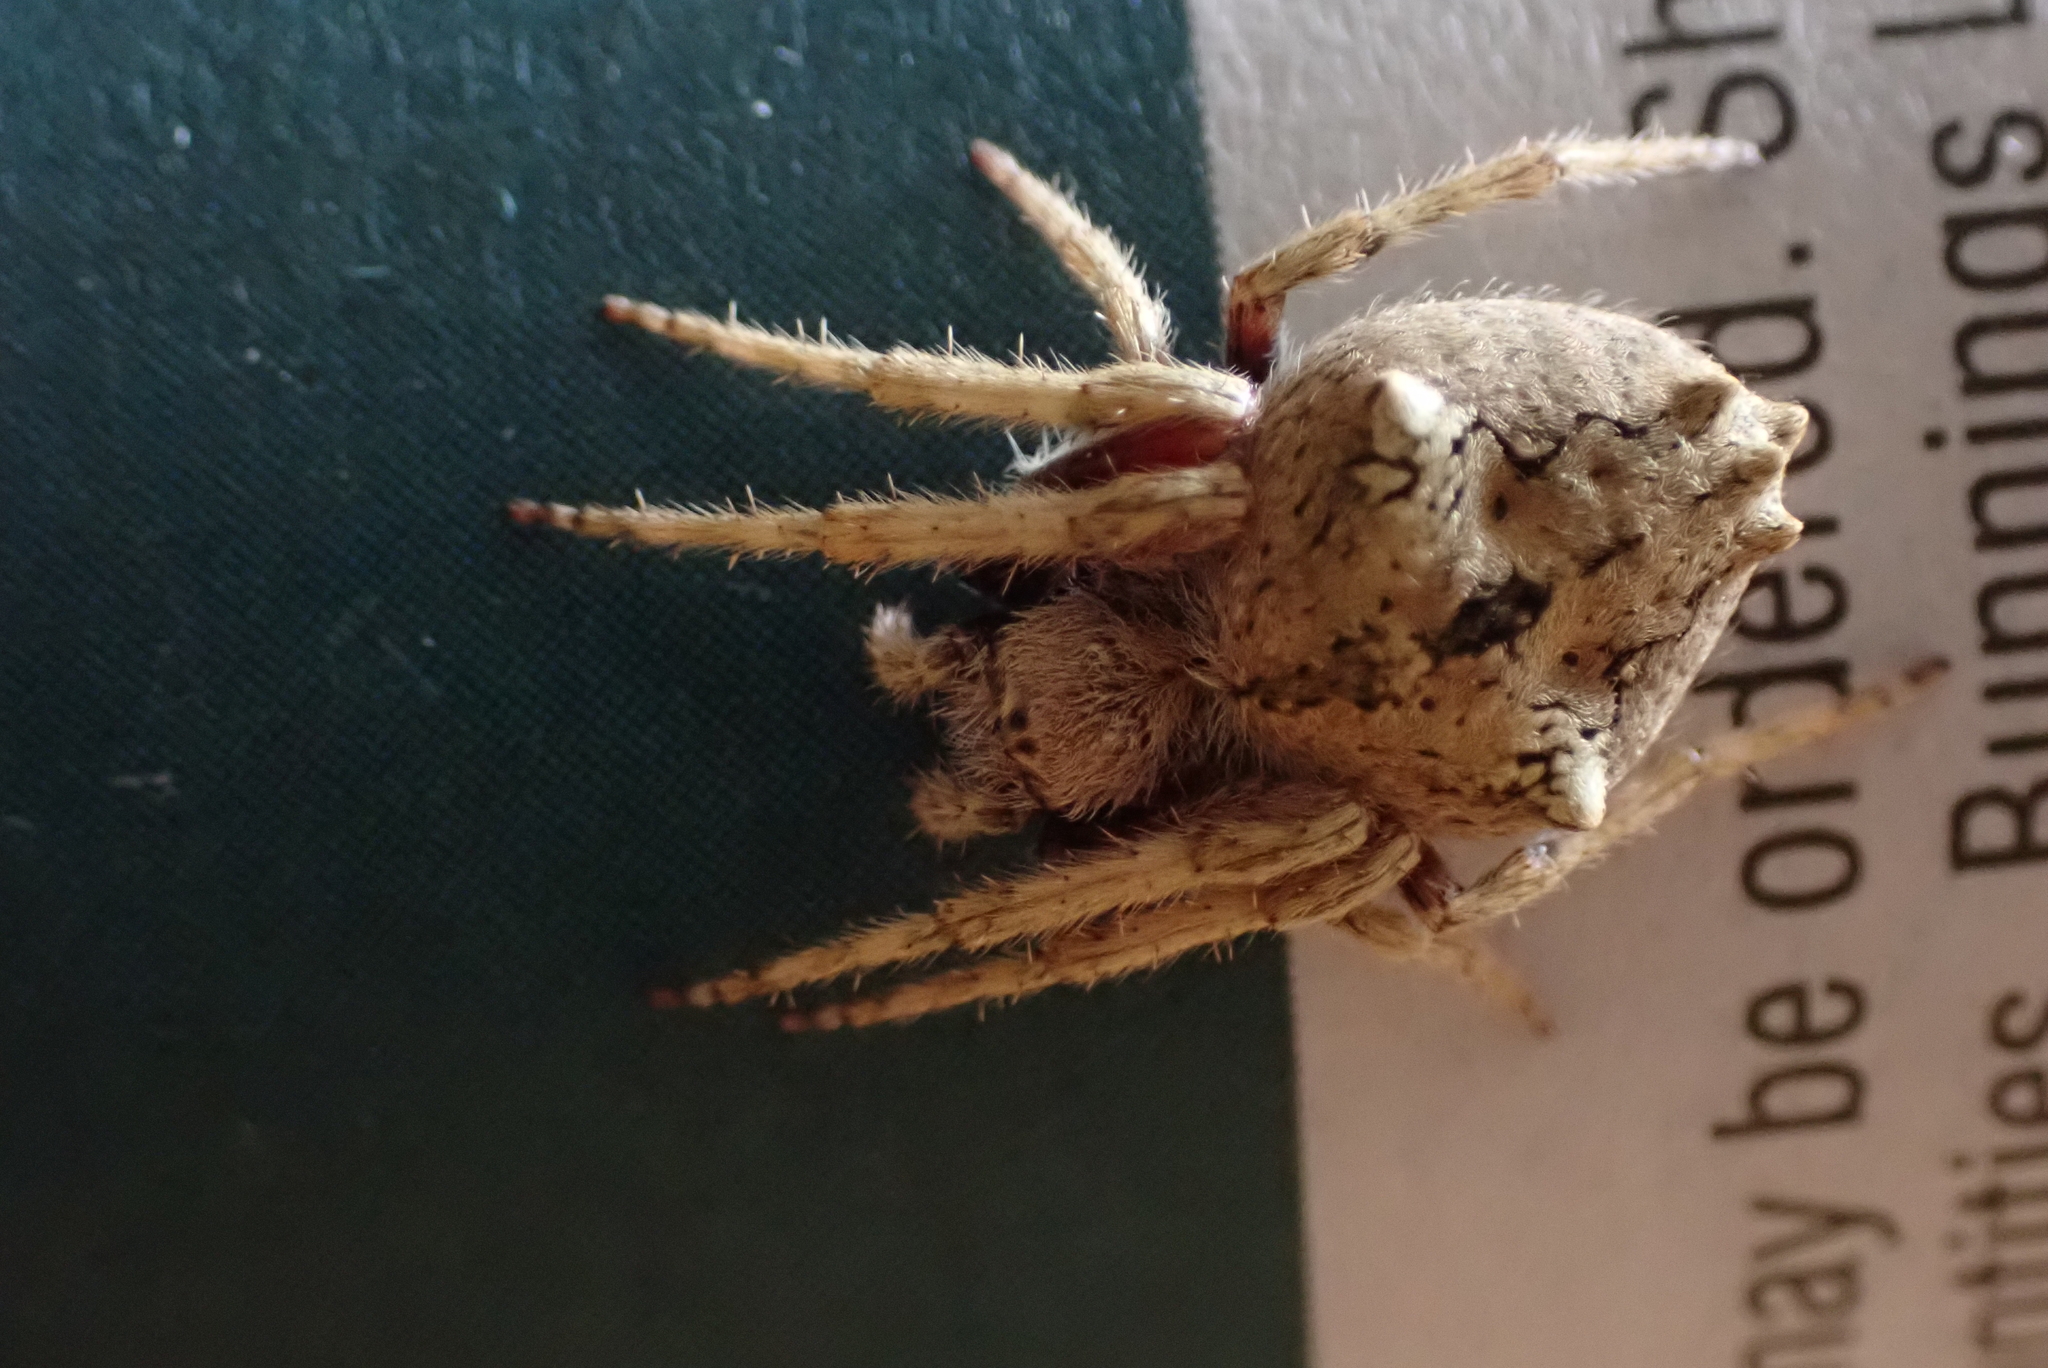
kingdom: Animalia
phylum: Arthropoda
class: Arachnida
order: Araneae
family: Araneidae
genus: Eriophora
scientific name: Eriophora pustulosa
